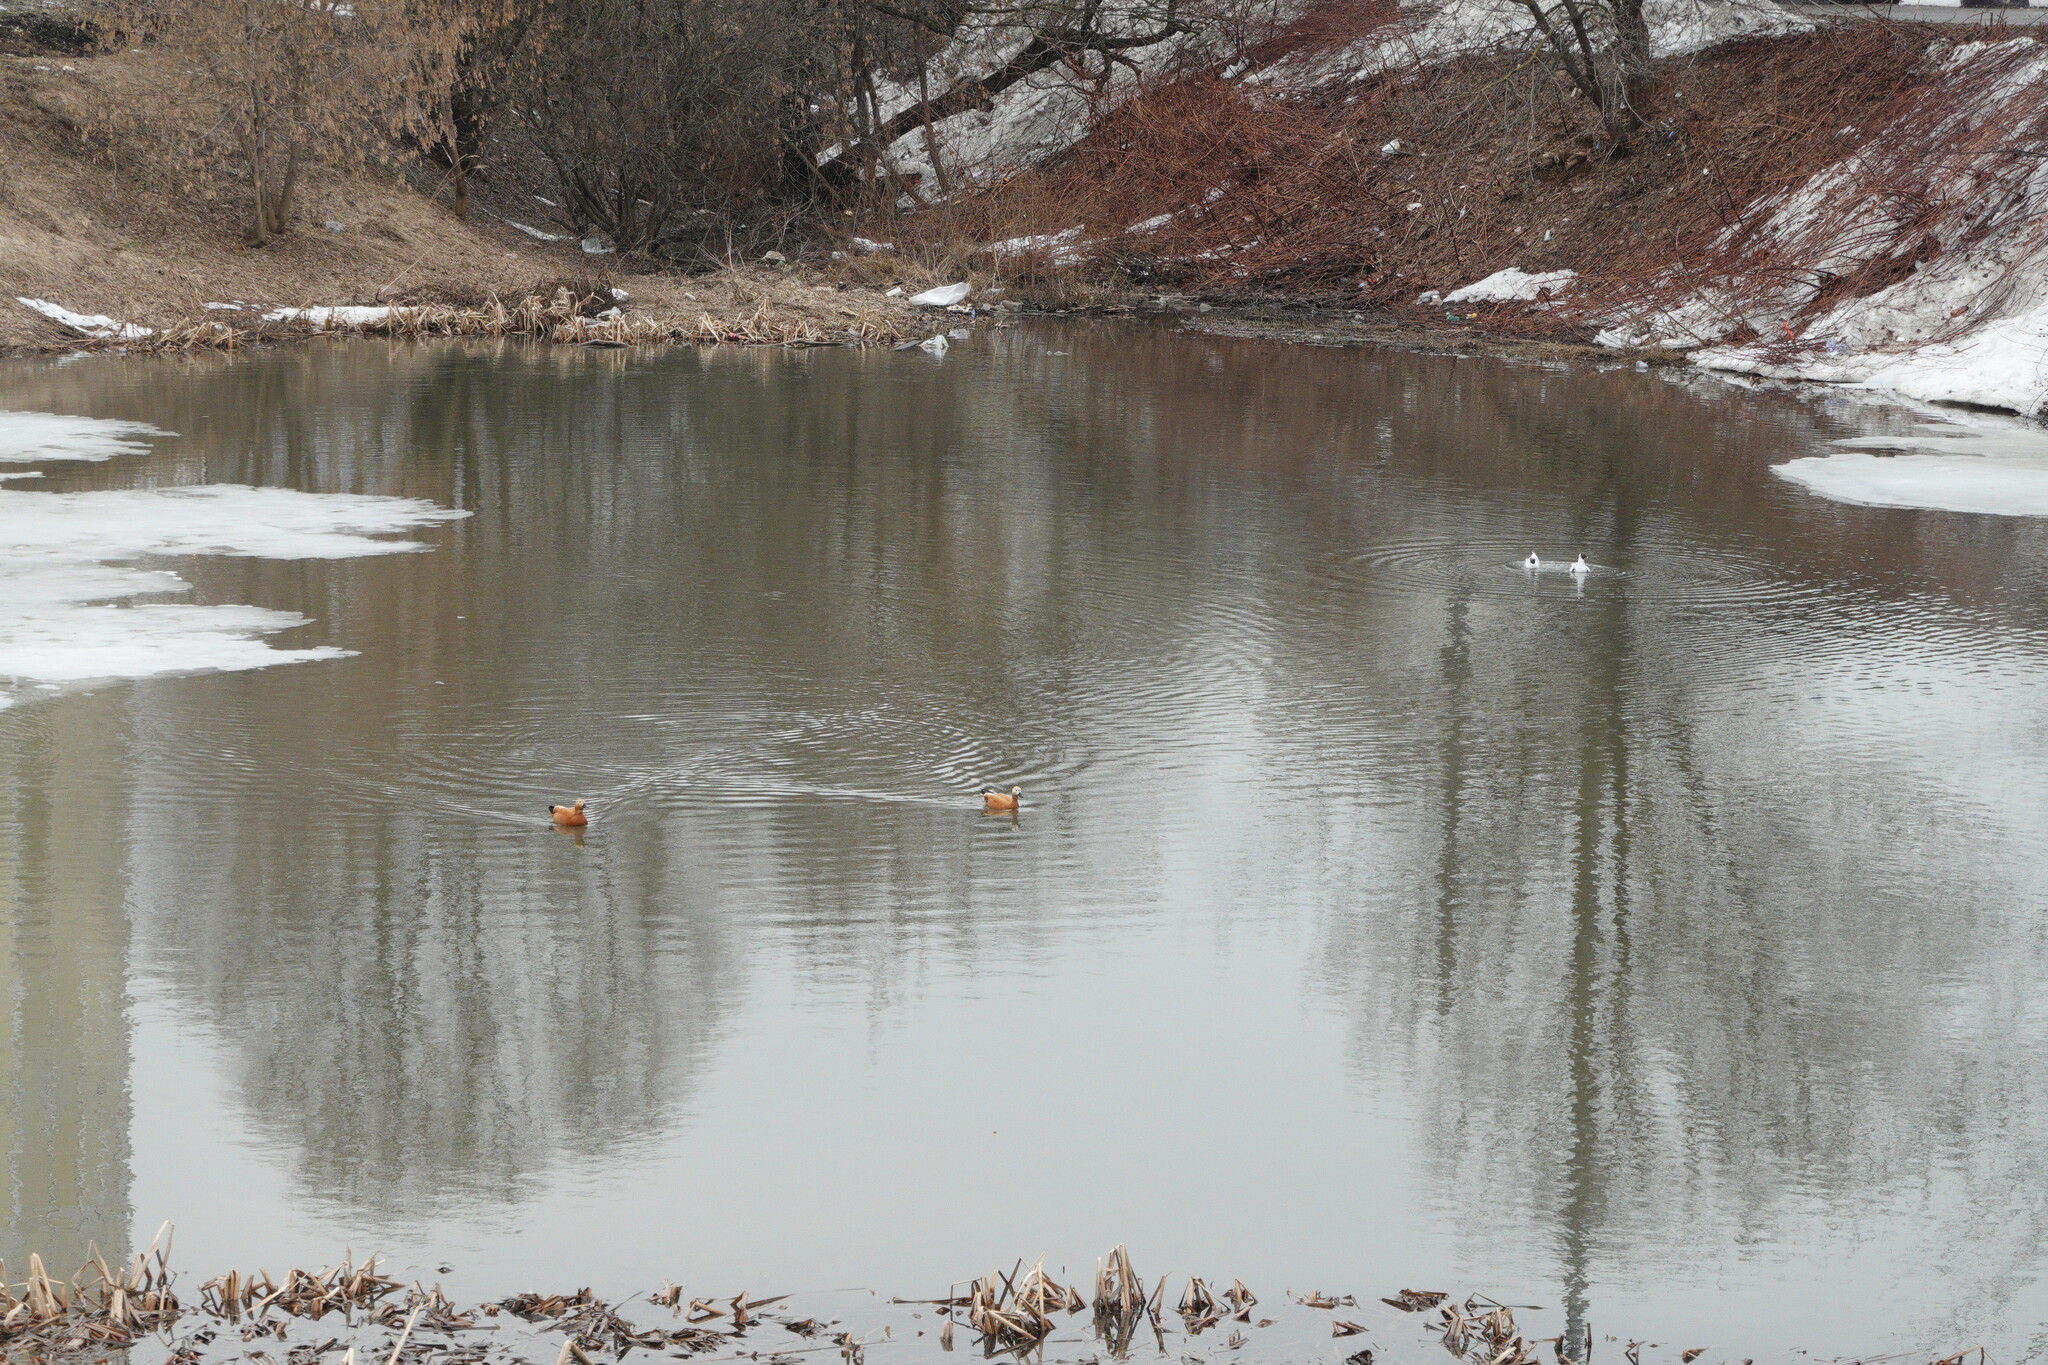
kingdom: Animalia
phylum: Chordata
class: Aves
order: Anseriformes
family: Anatidae
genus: Tadorna
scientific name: Tadorna ferruginea
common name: Ruddy shelduck
